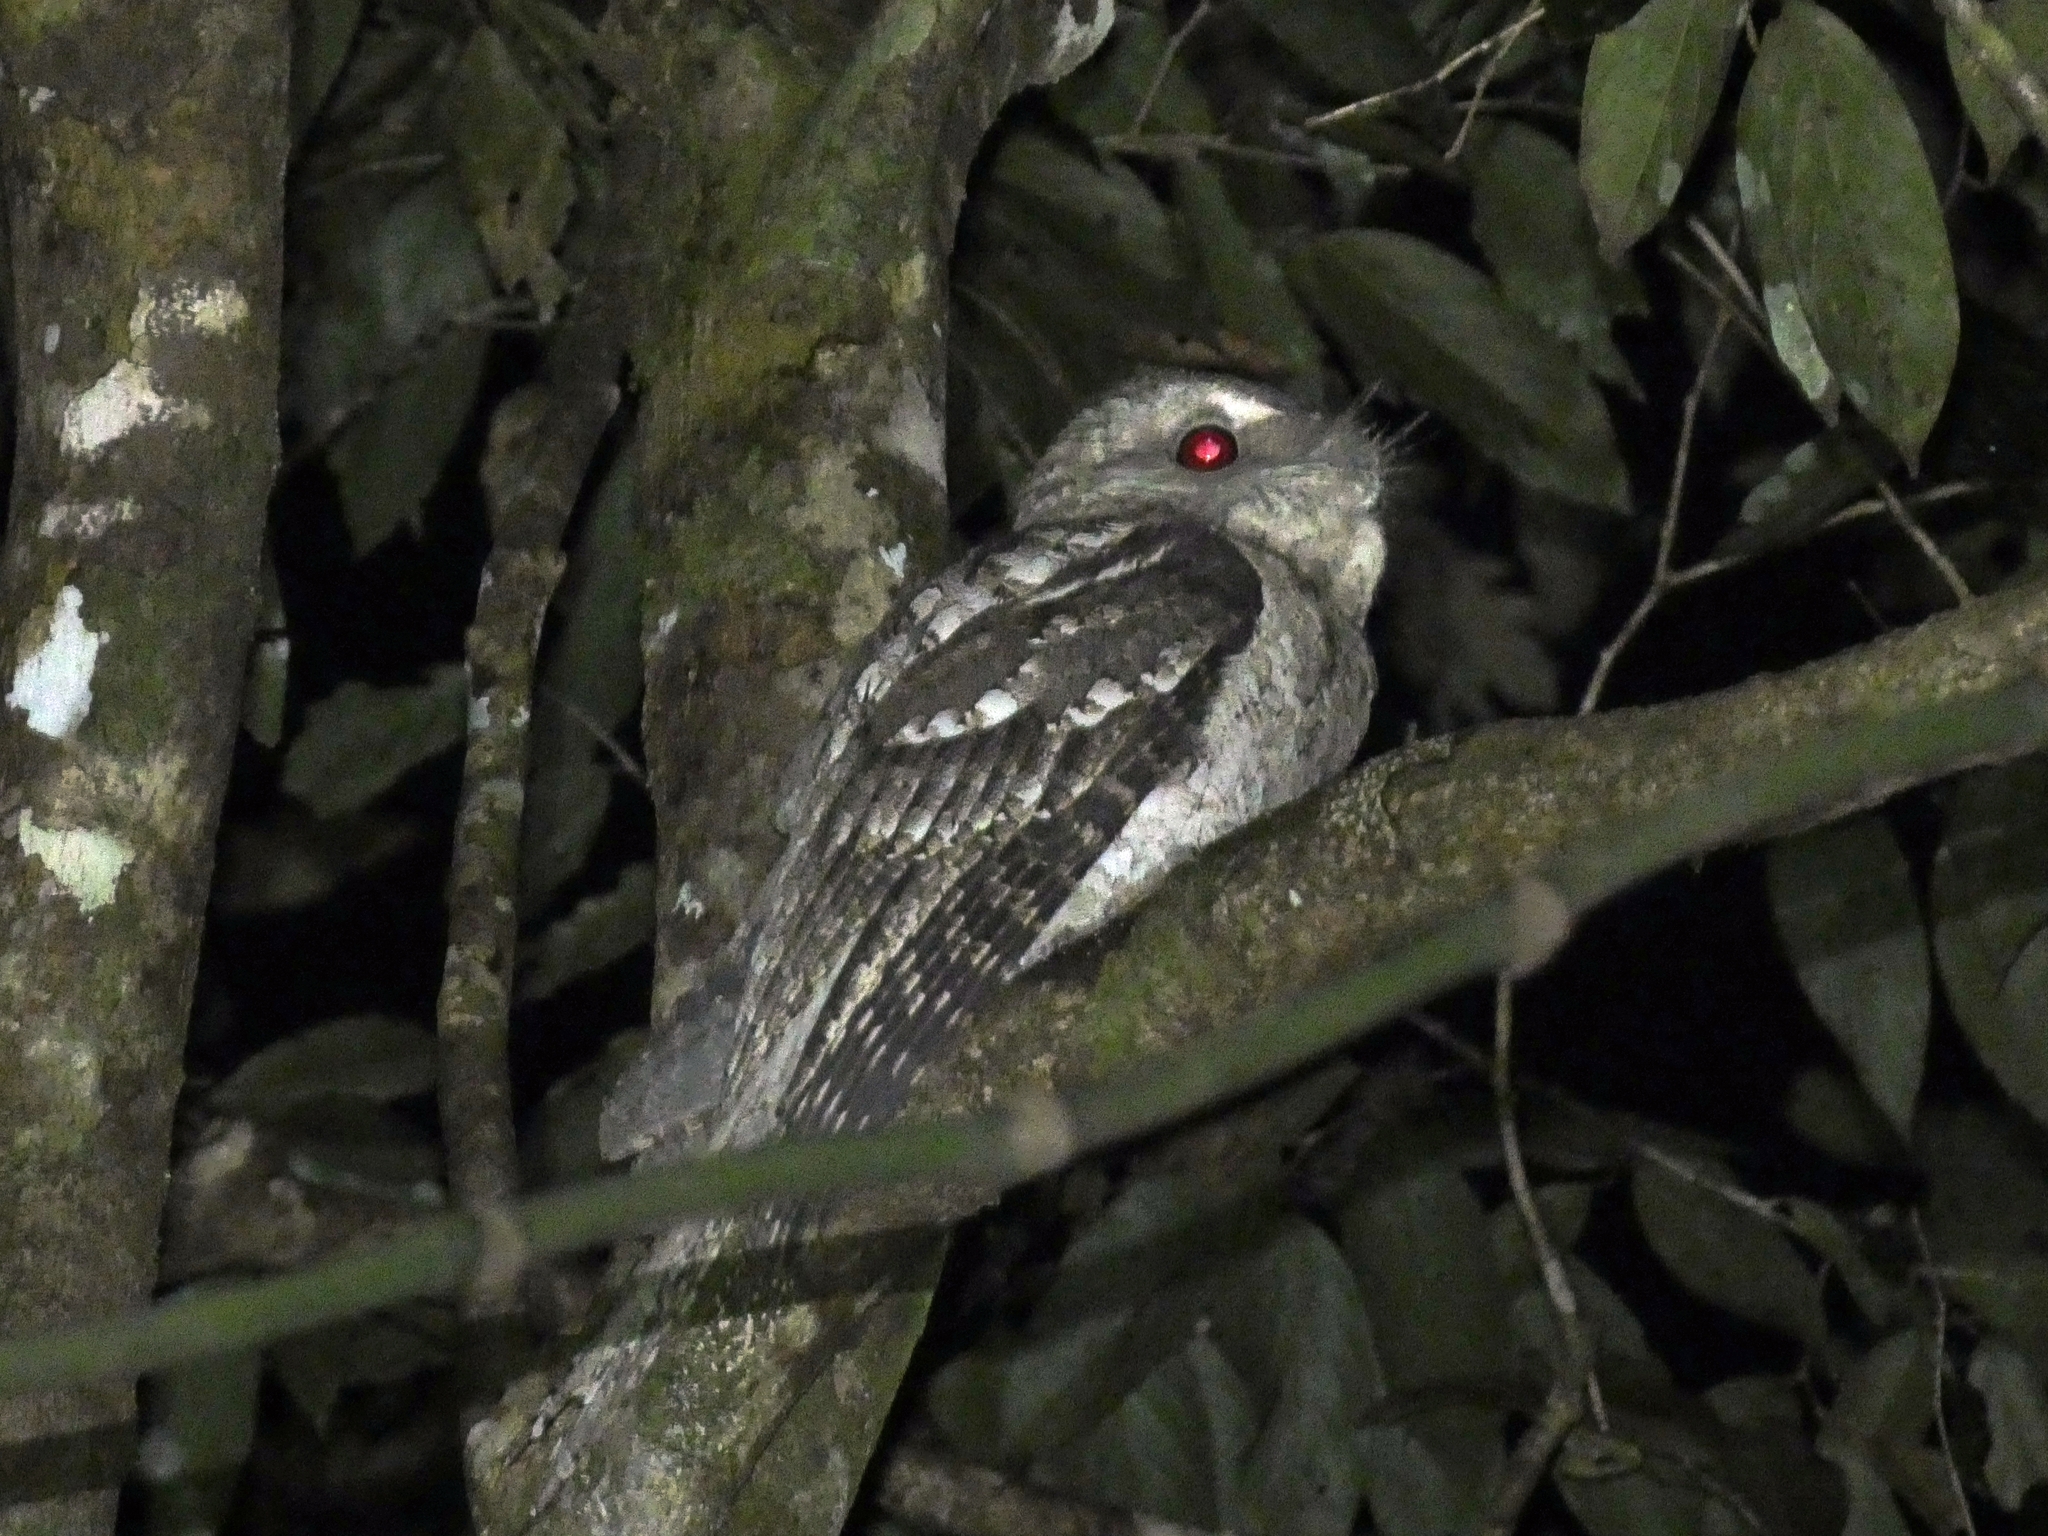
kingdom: Animalia
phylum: Chordata
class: Aves
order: Caprimulgiformes
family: Podargidae
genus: Podargus
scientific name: Podargus papuensis
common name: Papuan frogmouth
